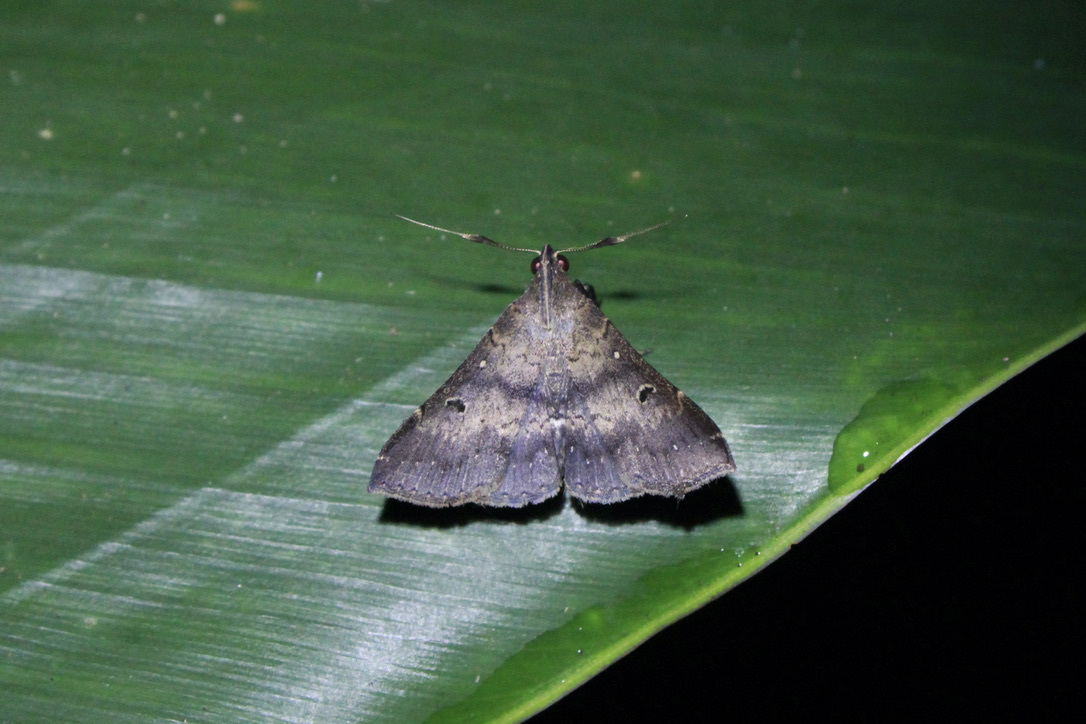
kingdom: Animalia
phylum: Arthropoda
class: Insecta
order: Lepidoptera
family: Erebidae
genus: Renia
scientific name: Renia bipunctata
